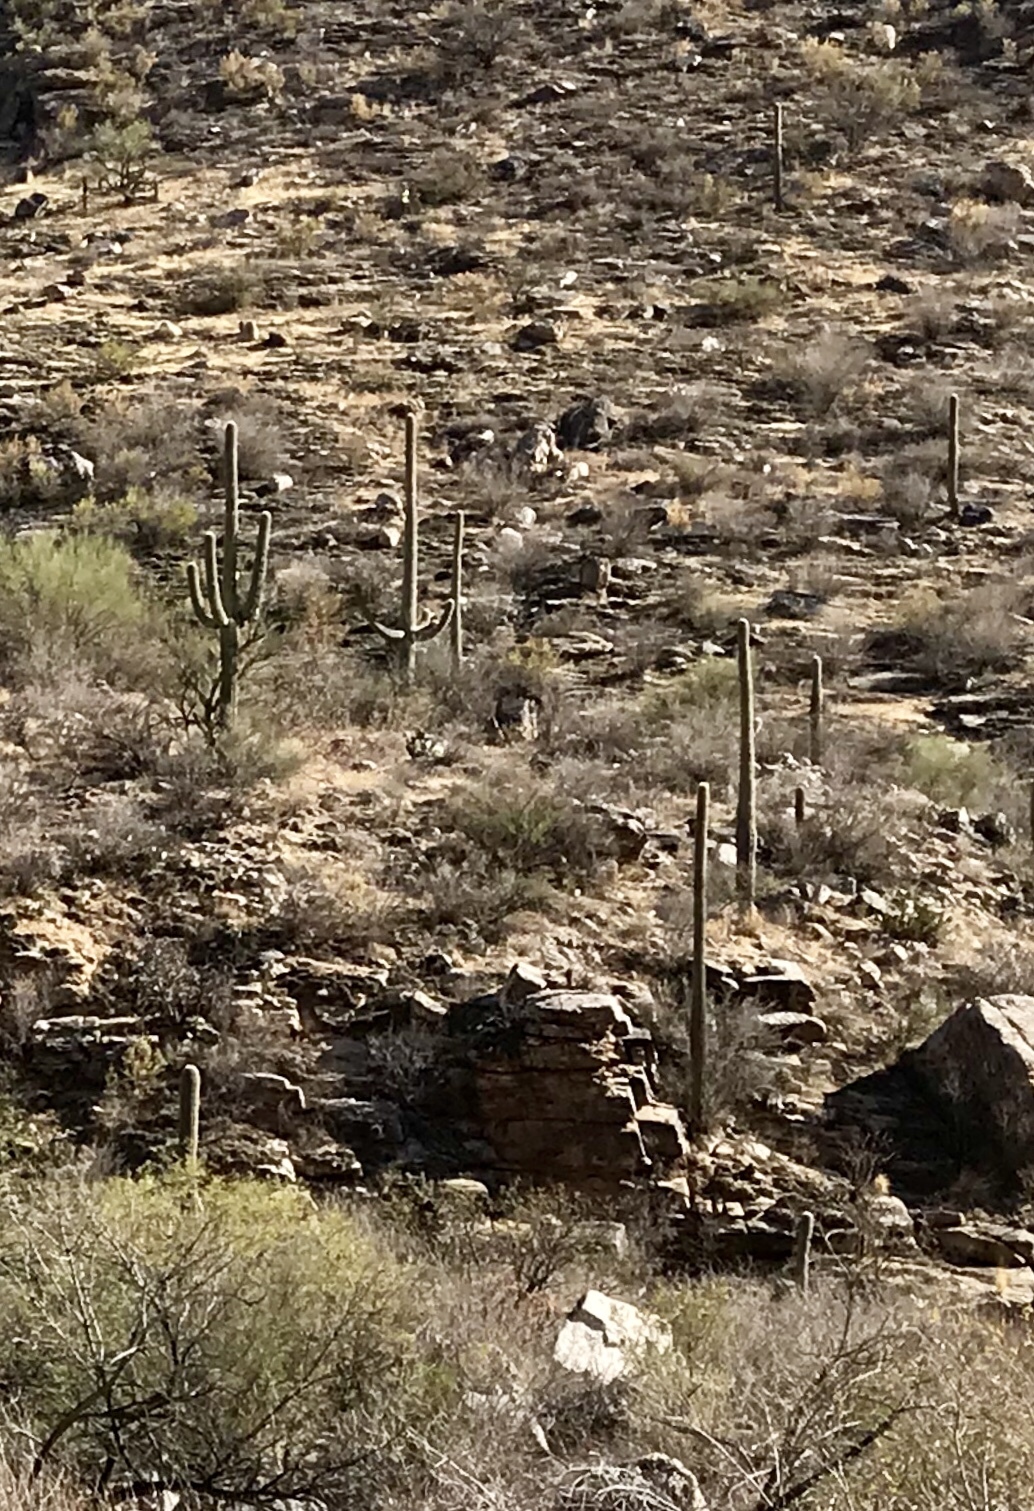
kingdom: Plantae
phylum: Tracheophyta
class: Magnoliopsida
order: Caryophyllales
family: Cactaceae
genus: Carnegiea
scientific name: Carnegiea gigantea
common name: Saguaro
